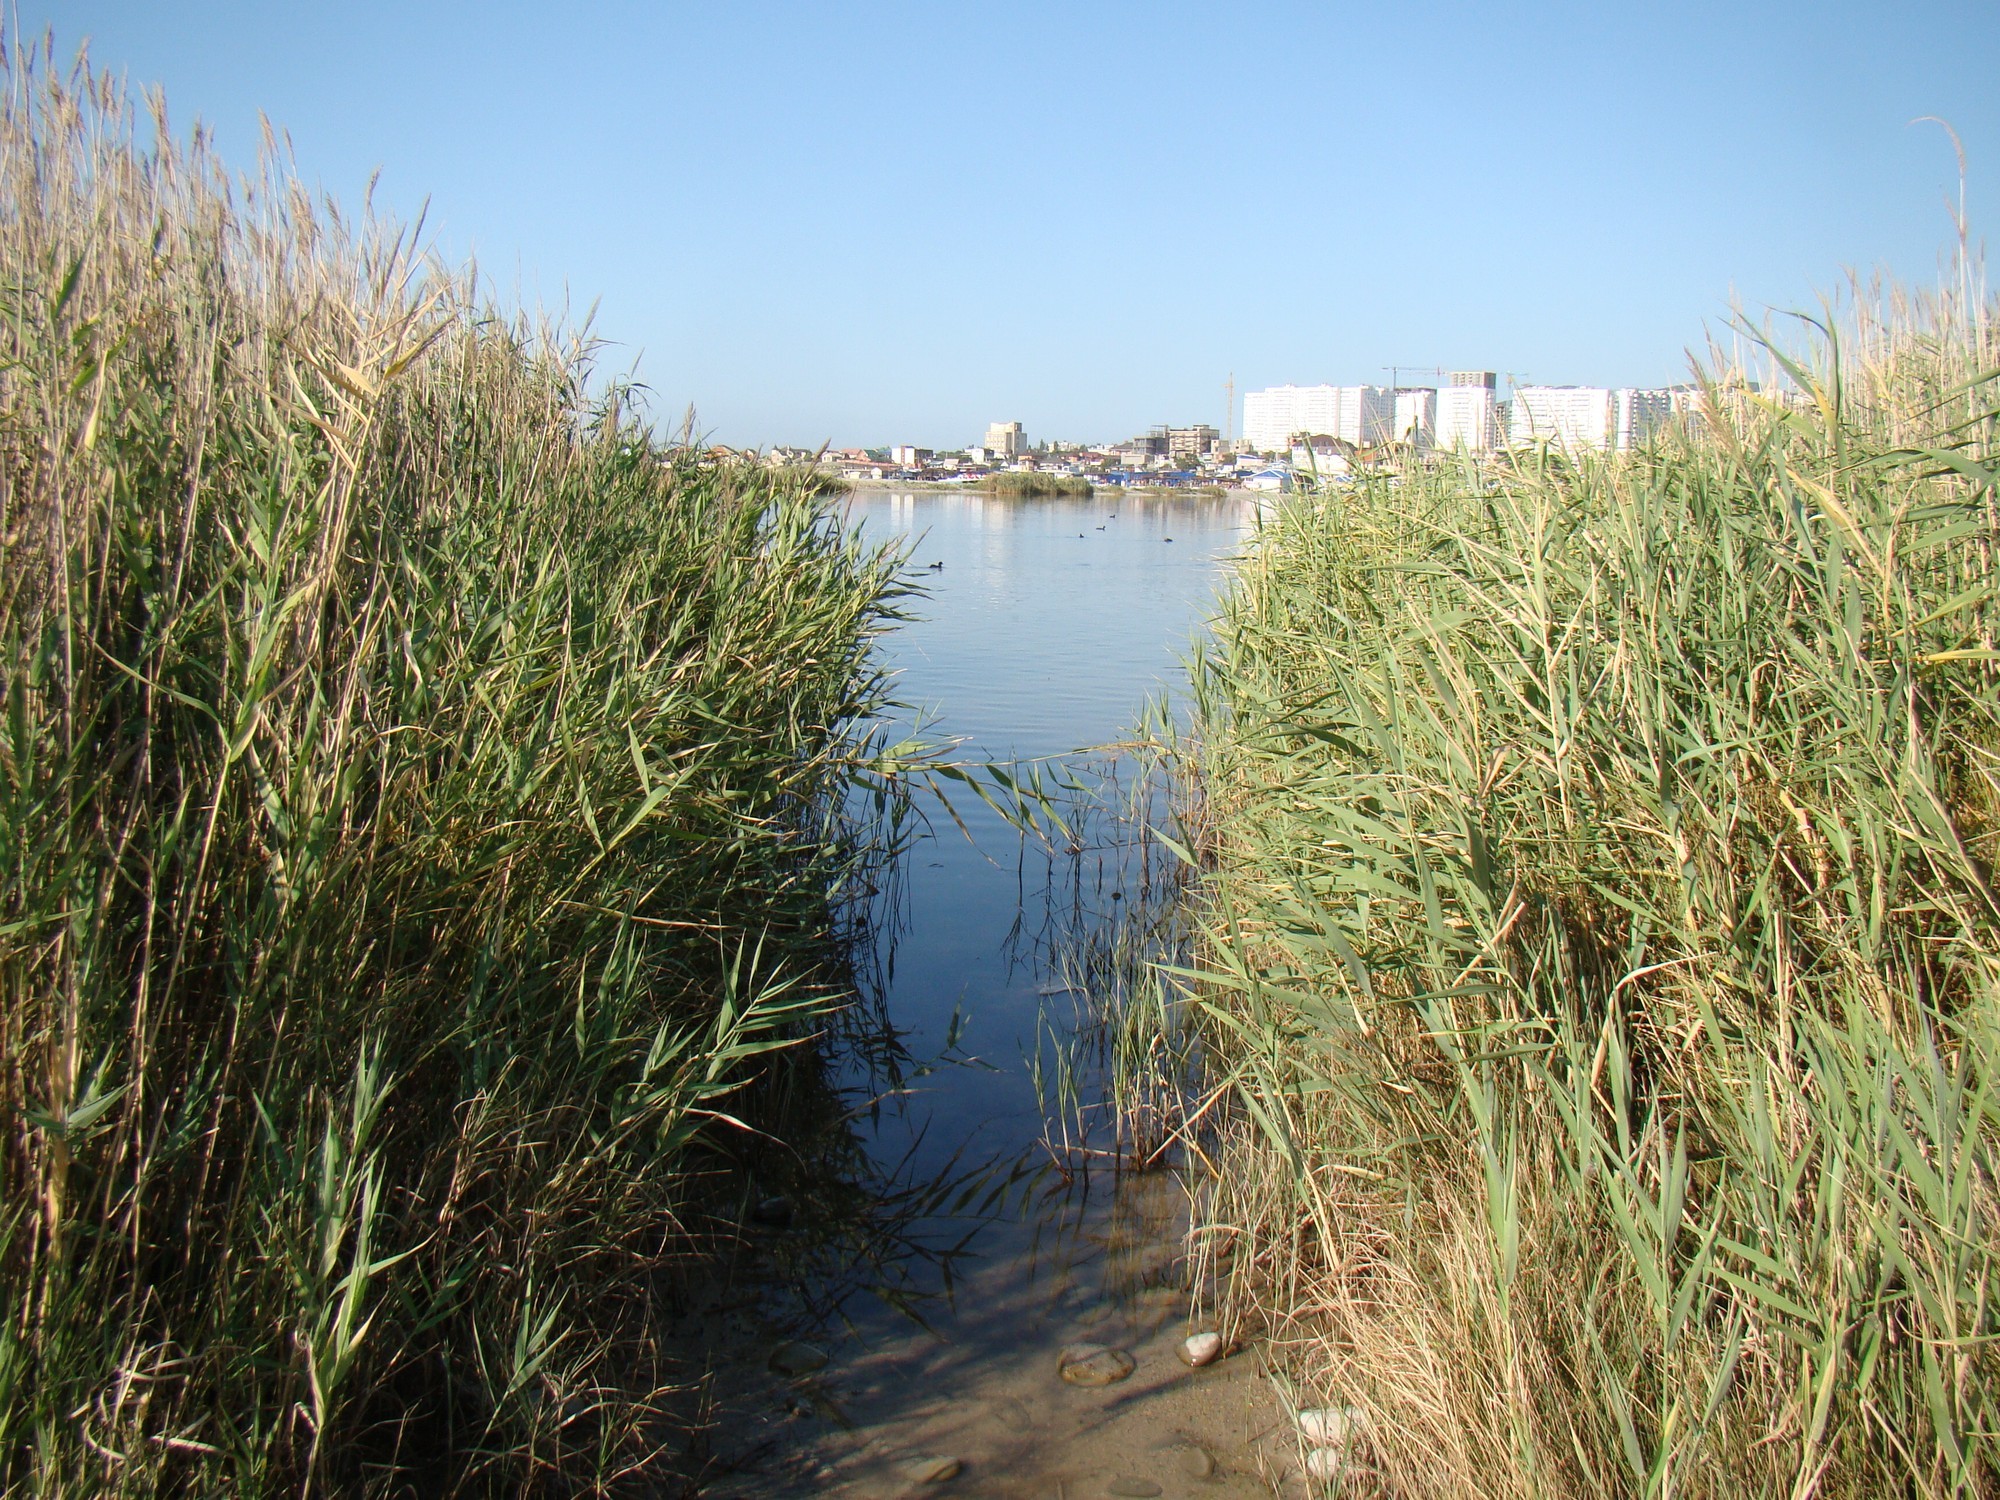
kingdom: Plantae
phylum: Tracheophyta
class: Liliopsida
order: Poales
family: Poaceae
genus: Phragmites
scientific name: Phragmites australis
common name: Common reed
